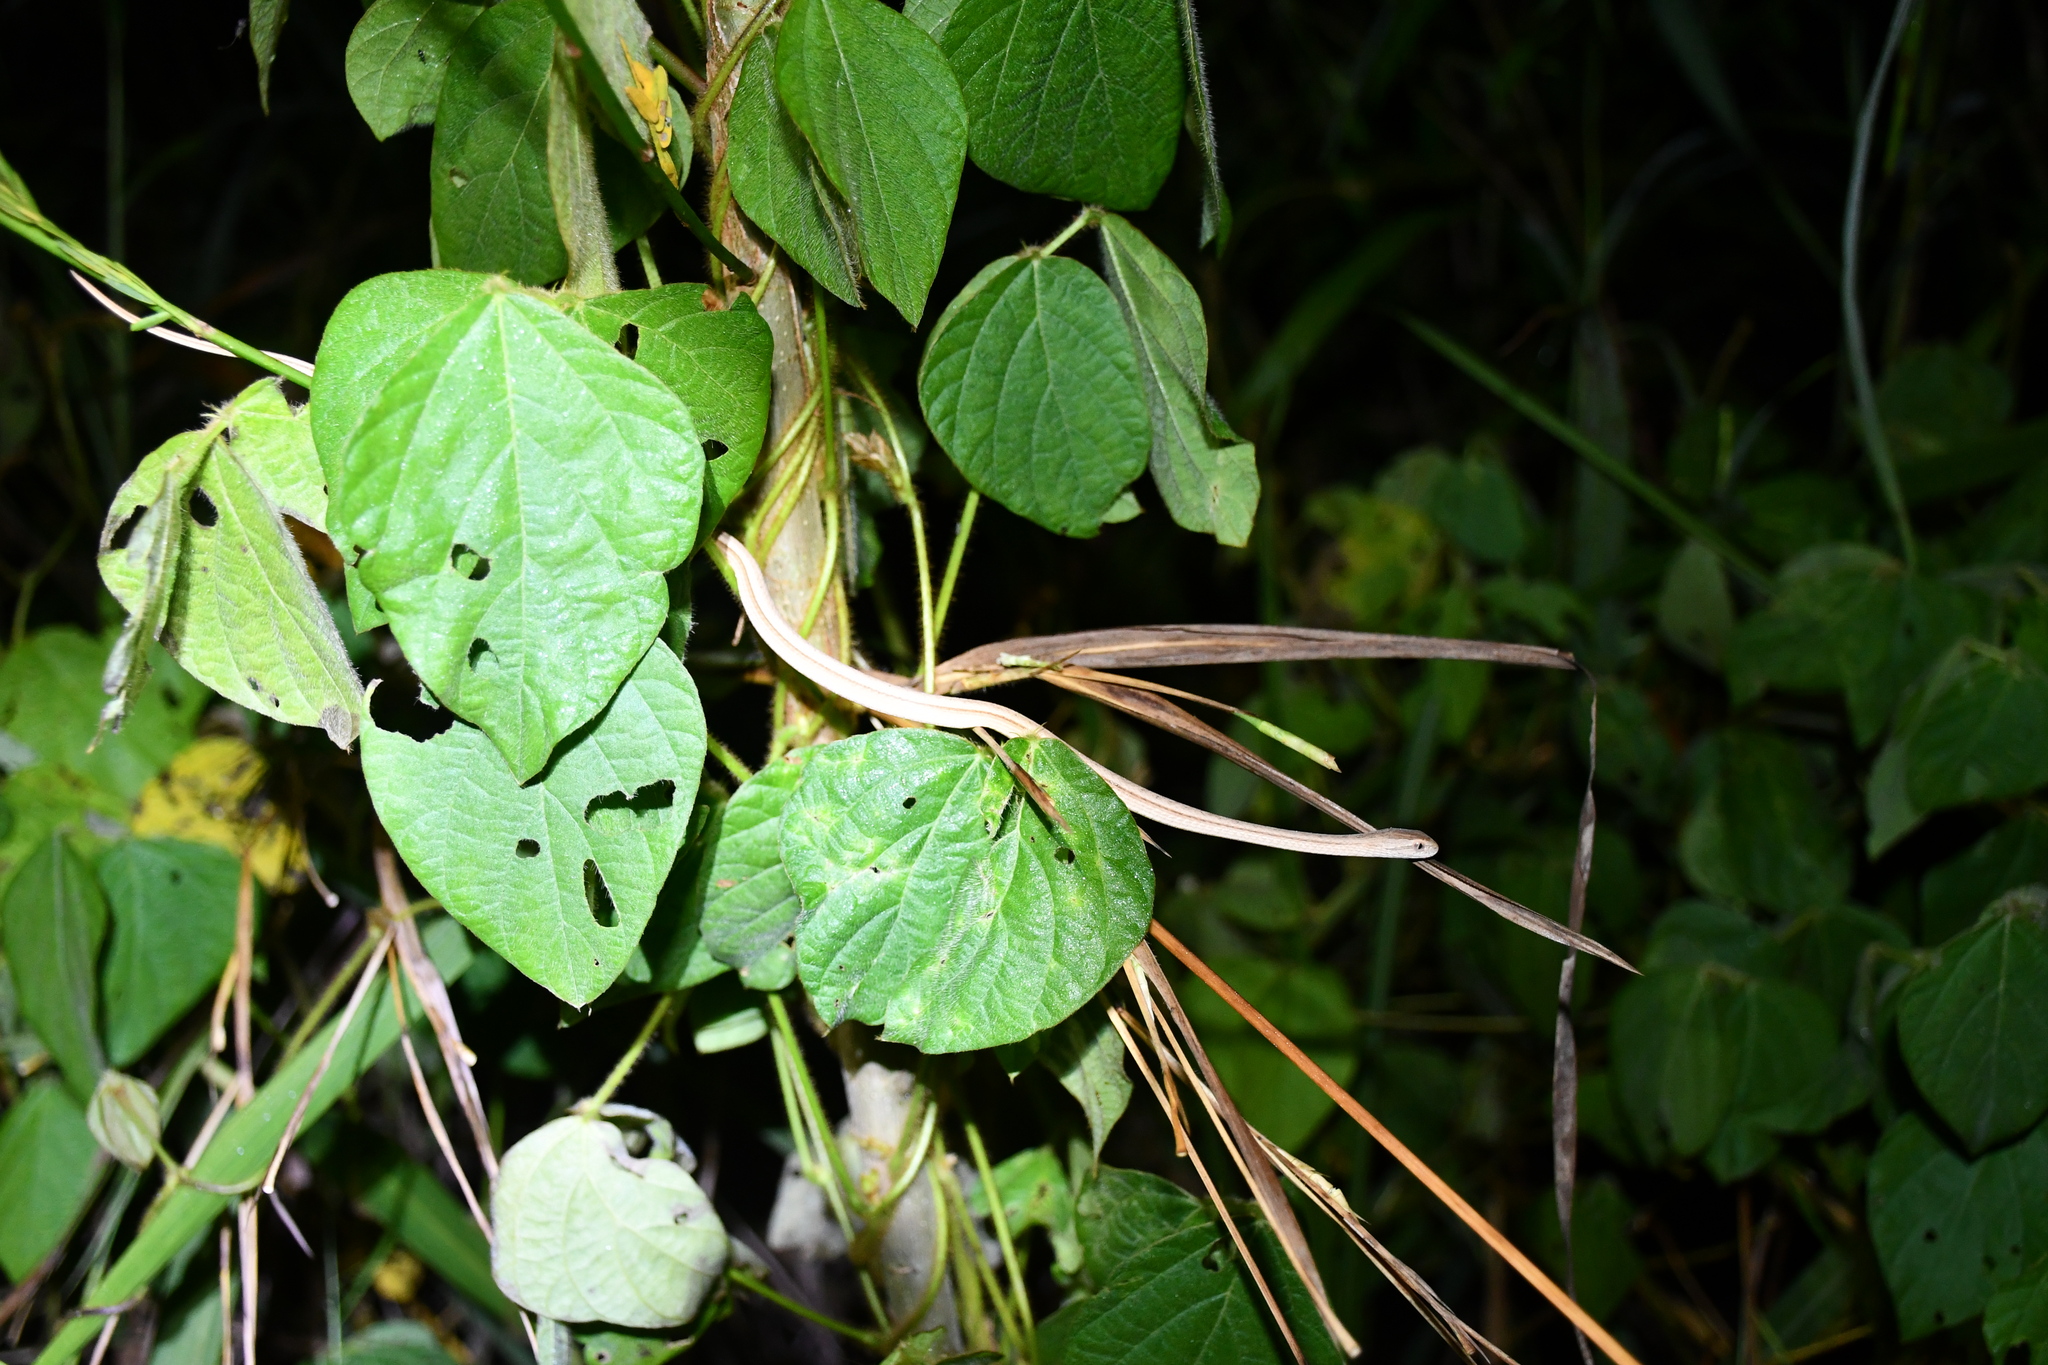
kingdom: Animalia
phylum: Chordata
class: Squamata
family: Colubridae
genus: Thamnodynastes
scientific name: Thamnodynastes pallidus
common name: Amazon coastal house snake
